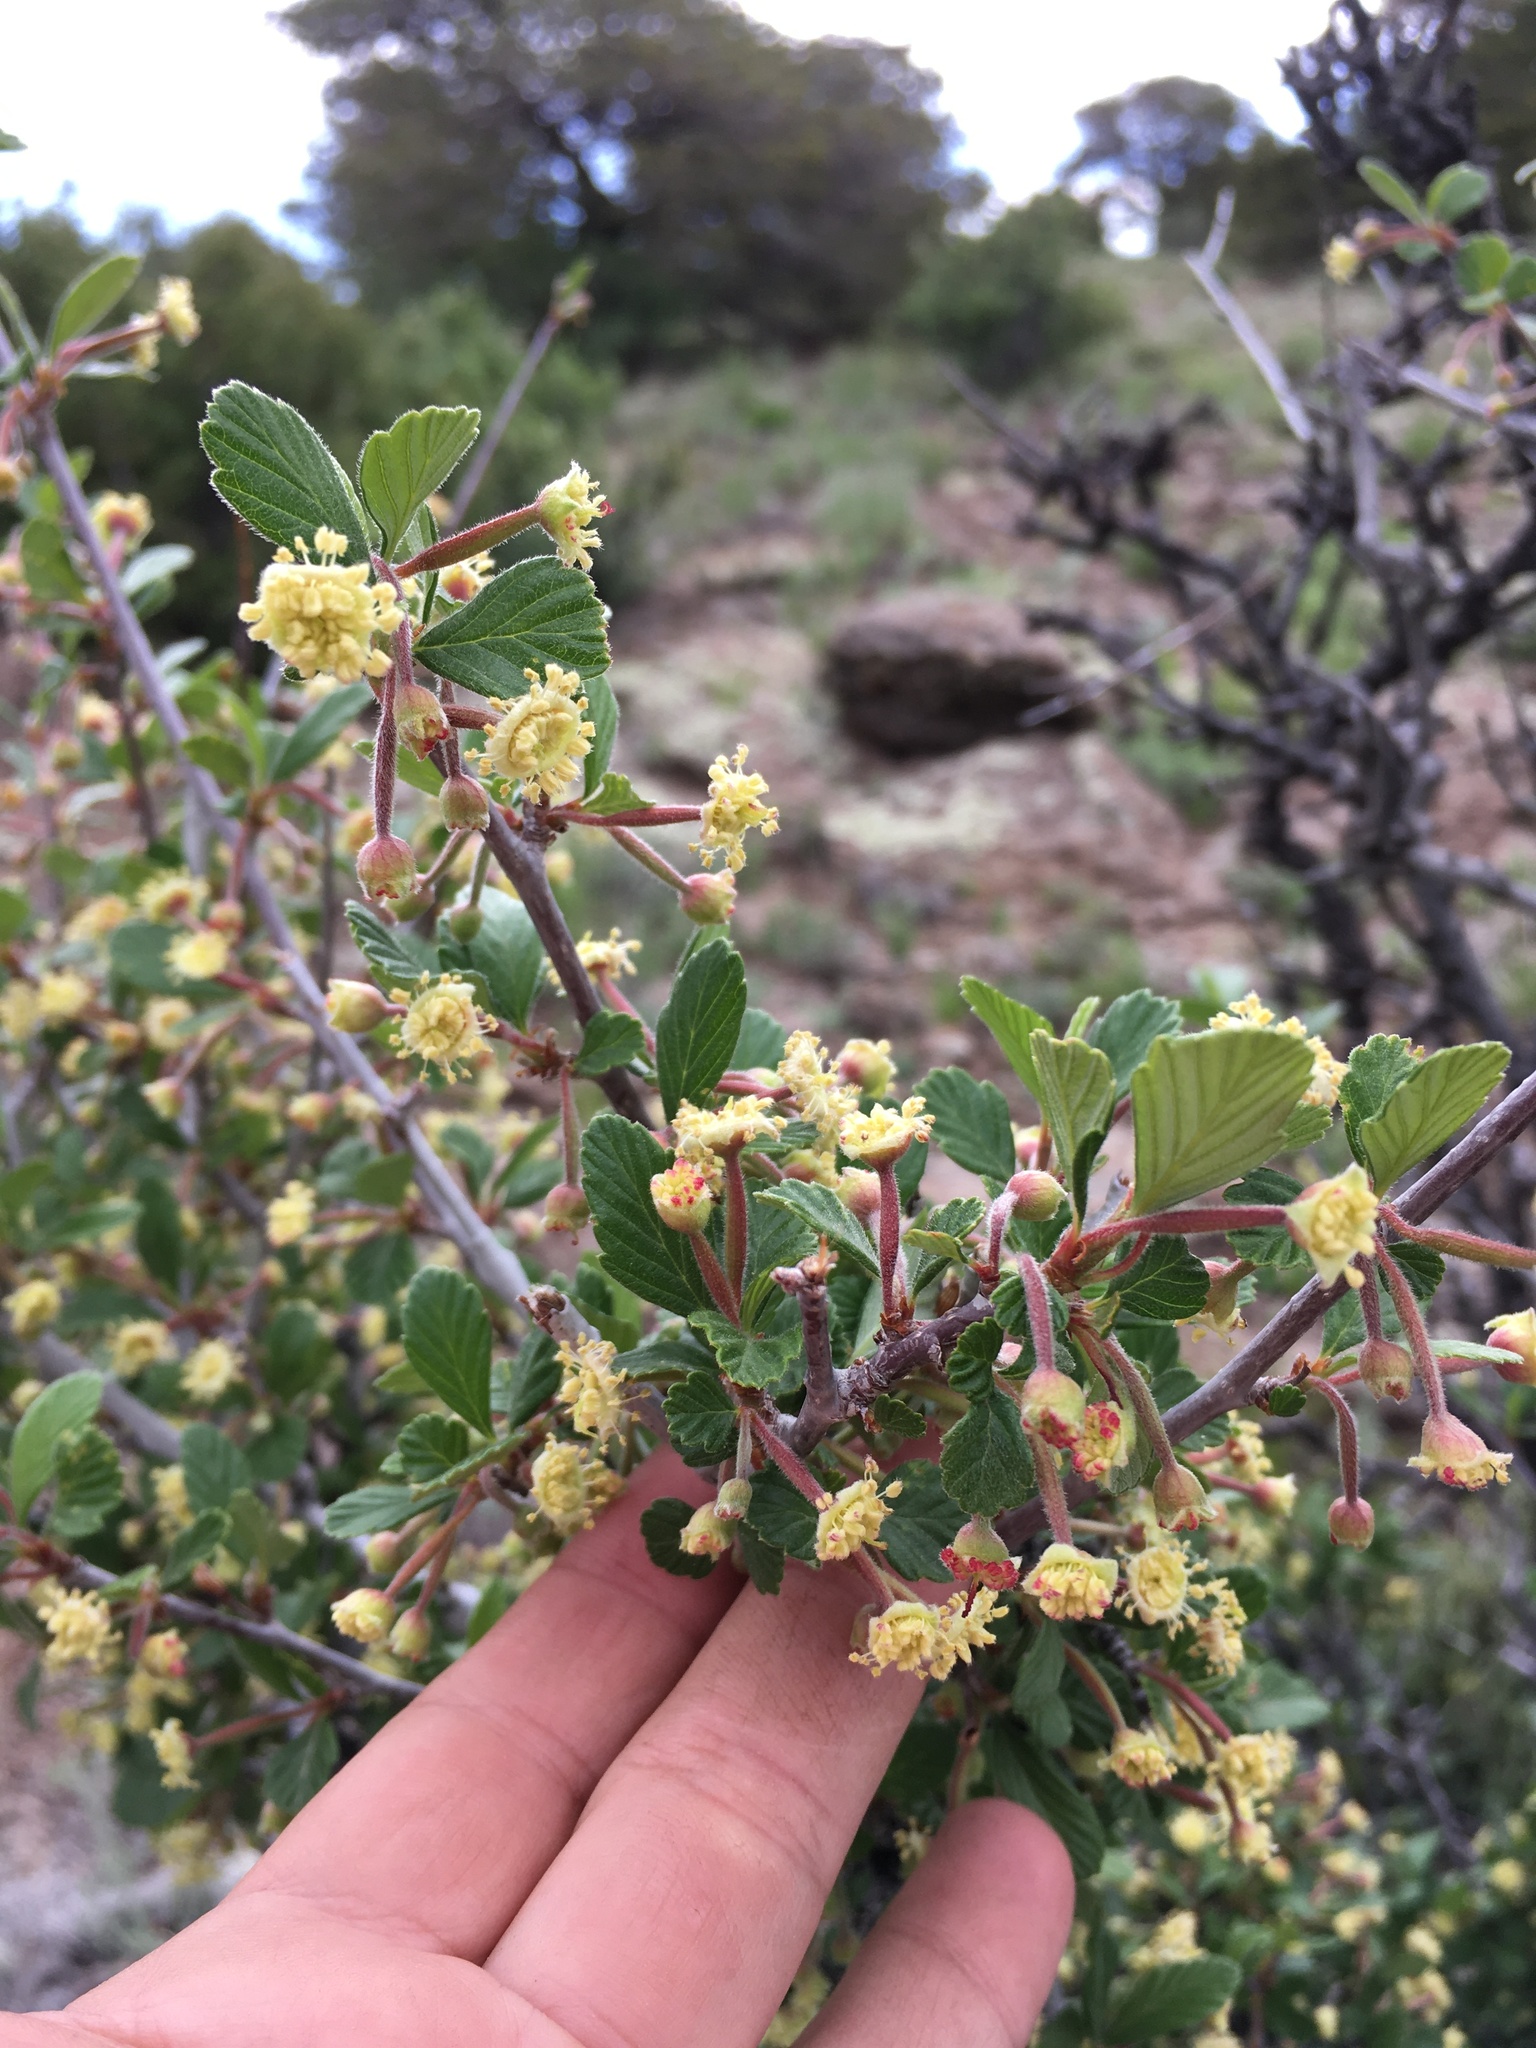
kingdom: Plantae
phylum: Tracheophyta
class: Magnoliopsida
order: Rosales
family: Rosaceae
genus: Cercocarpus
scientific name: Cercocarpus montanus
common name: Alder-leaf cercocarpus
